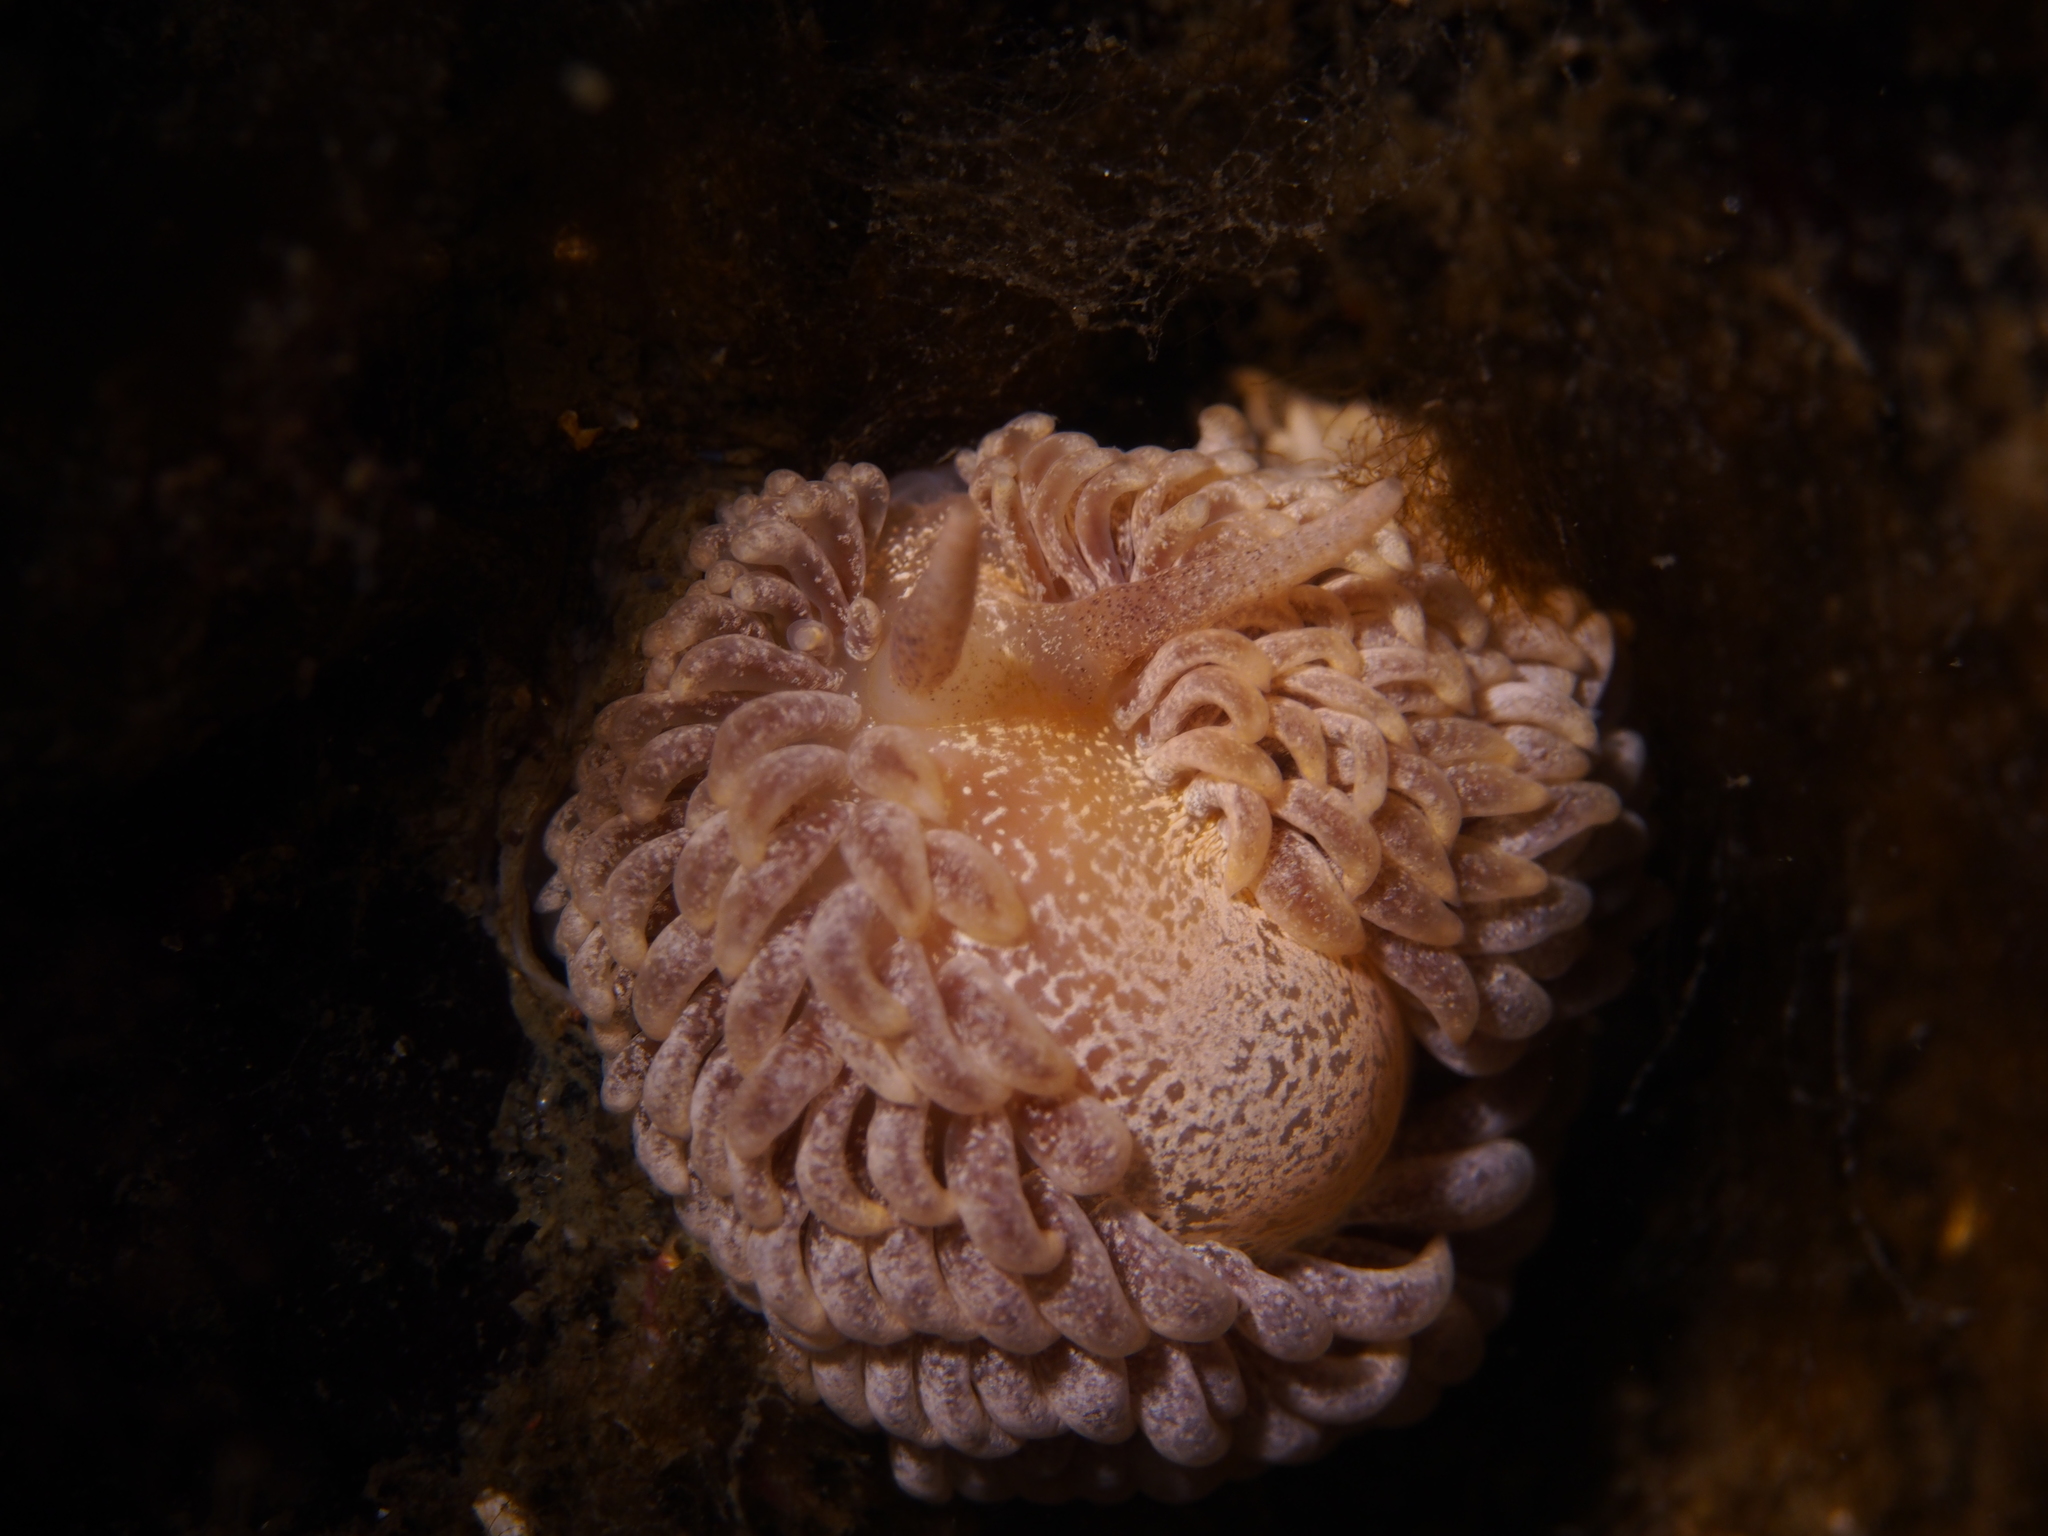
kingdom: Animalia
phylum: Mollusca
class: Gastropoda
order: Nudibranchia
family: Aeolidiidae
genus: Aeolidia
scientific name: Aeolidia papillosa
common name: Common grey sea slug
